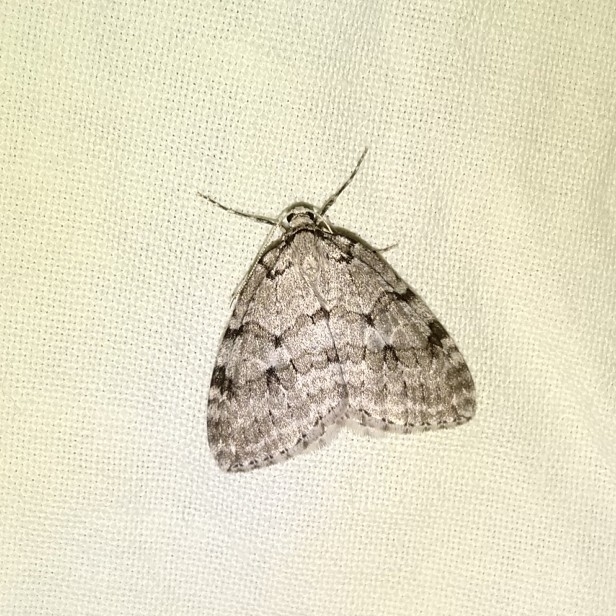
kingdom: Animalia
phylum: Arthropoda
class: Insecta
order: Lepidoptera
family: Geometridae
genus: Epirrita
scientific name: Epirrita autumnata
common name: Autumnal moth
